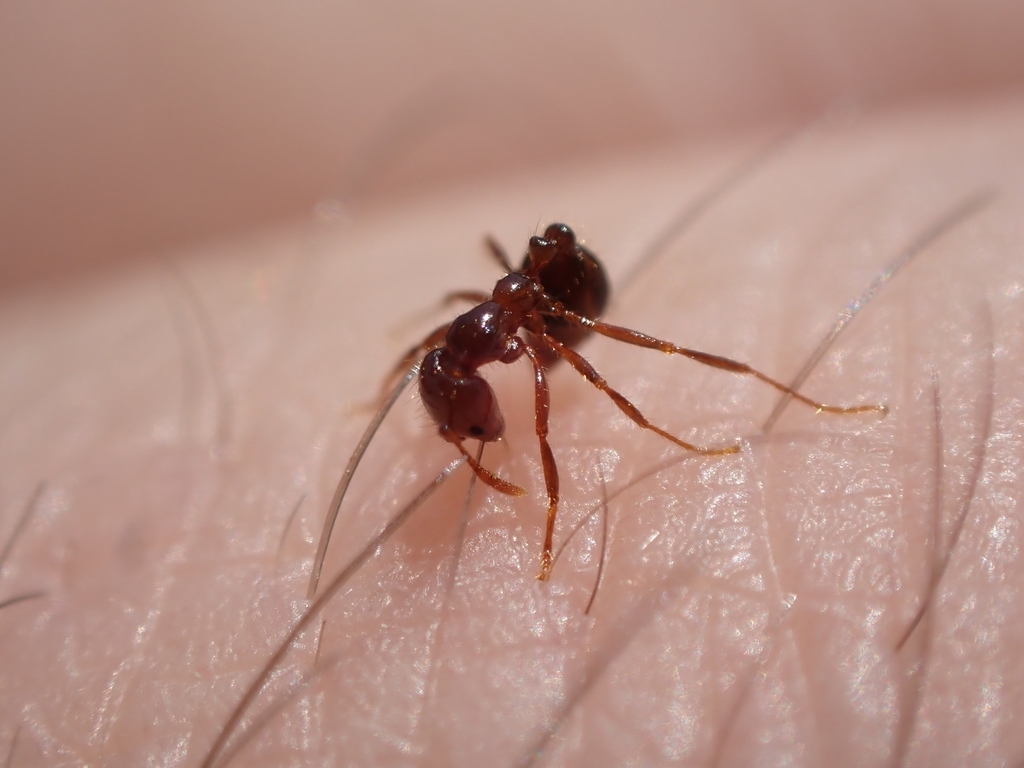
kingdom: Animalia
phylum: Arthropoda
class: Insecta
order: Hymenoptera
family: Formicidae
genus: Solenopsis
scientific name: Solenopsis invicta
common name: Red imported fire ant
